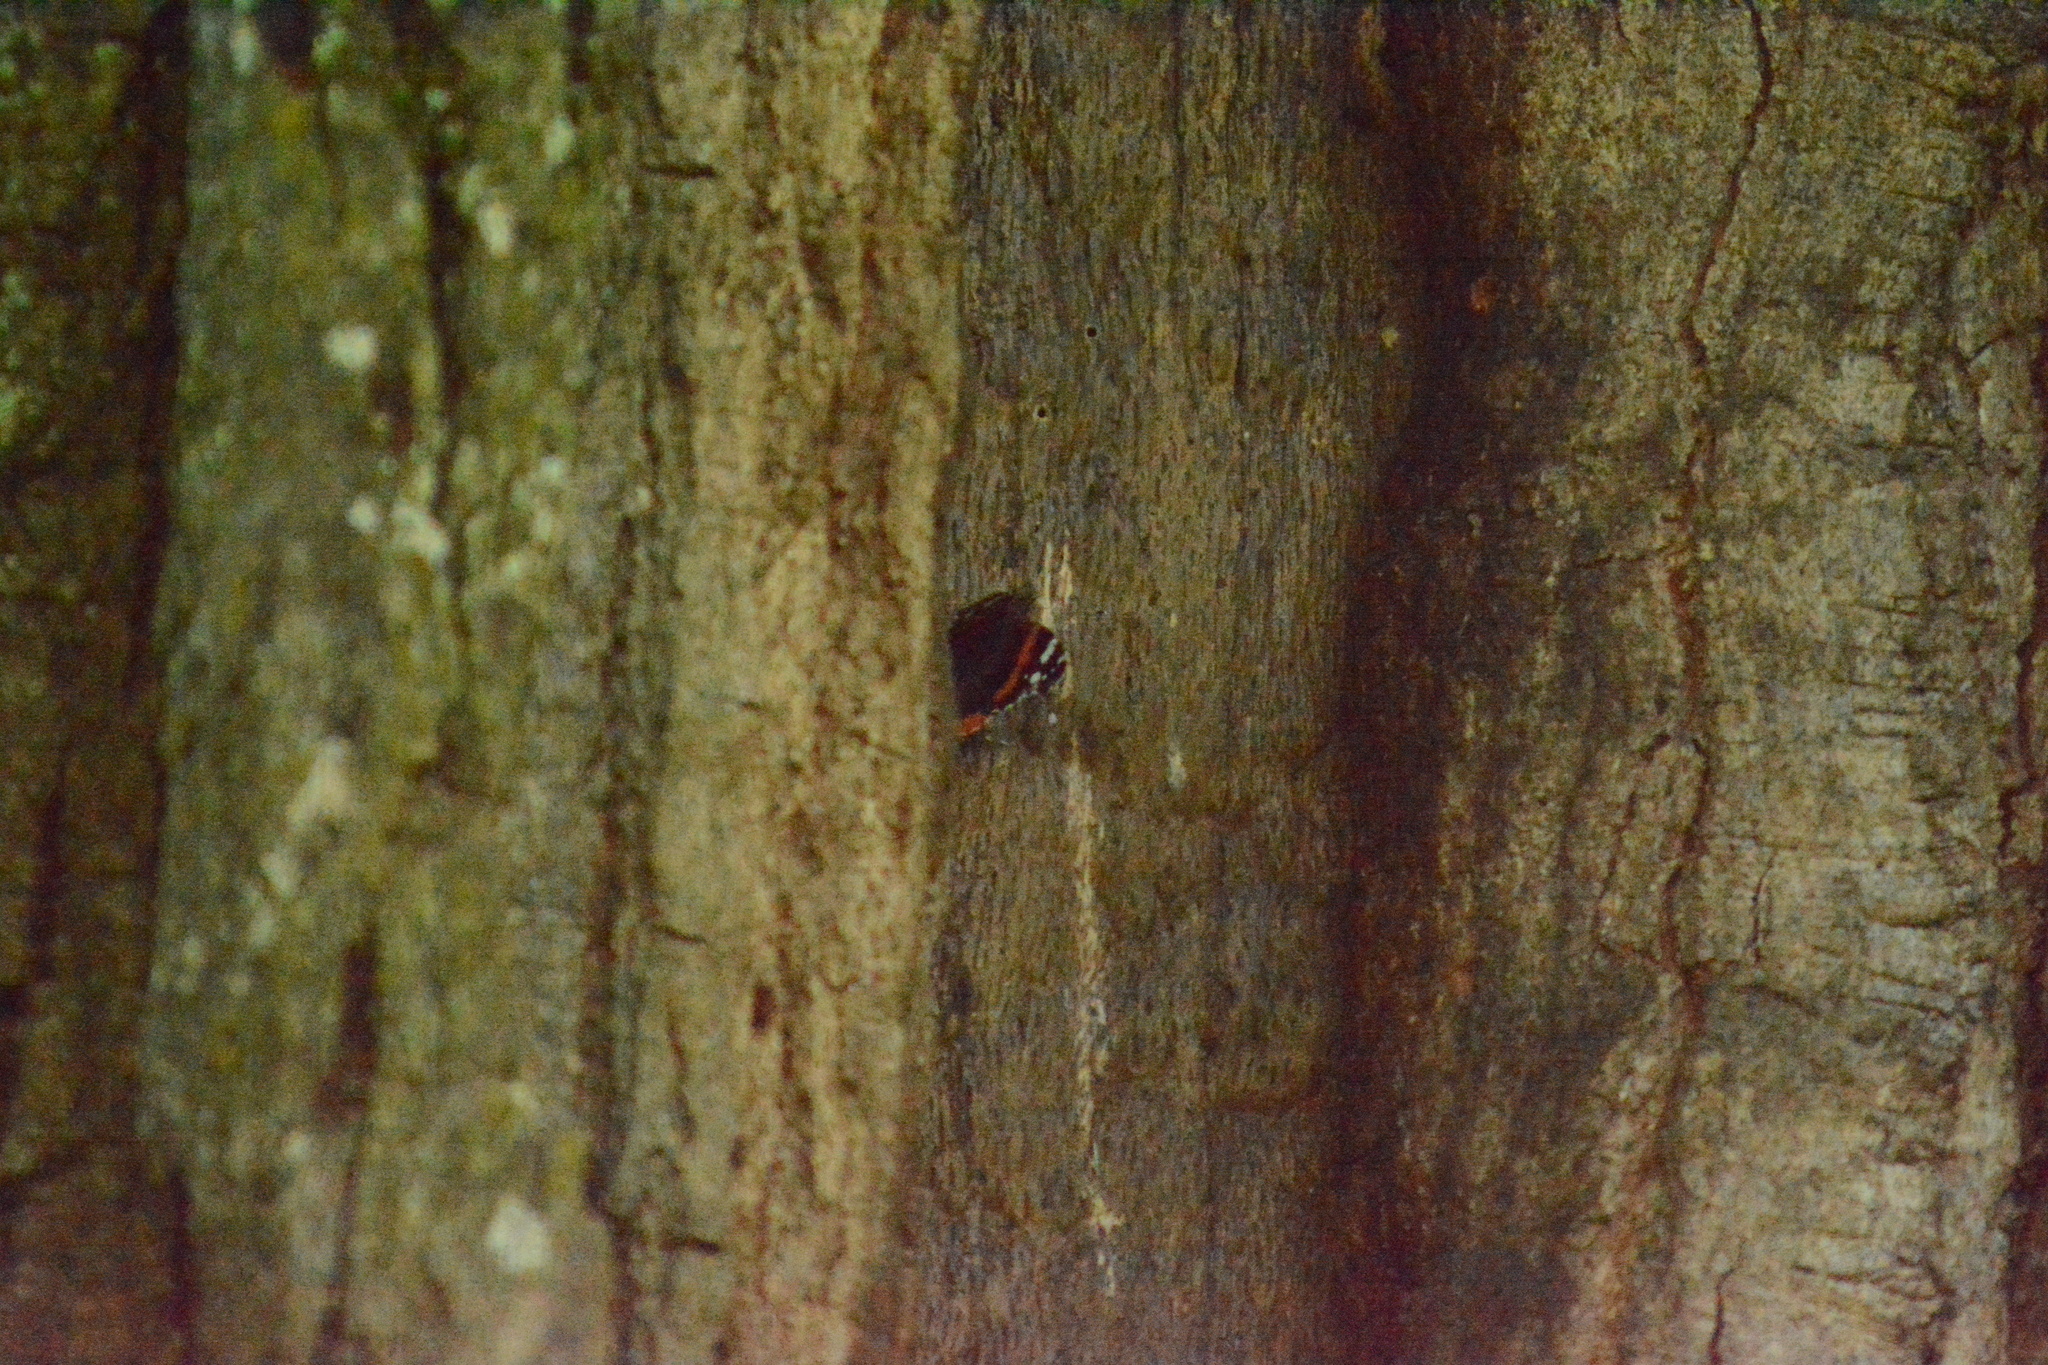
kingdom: Animalia
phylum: Arthropoda
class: Insecta
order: Lepidoptera
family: Nymphalidae
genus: Vanessa
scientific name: Vanessa atalanta
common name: Red admiral
